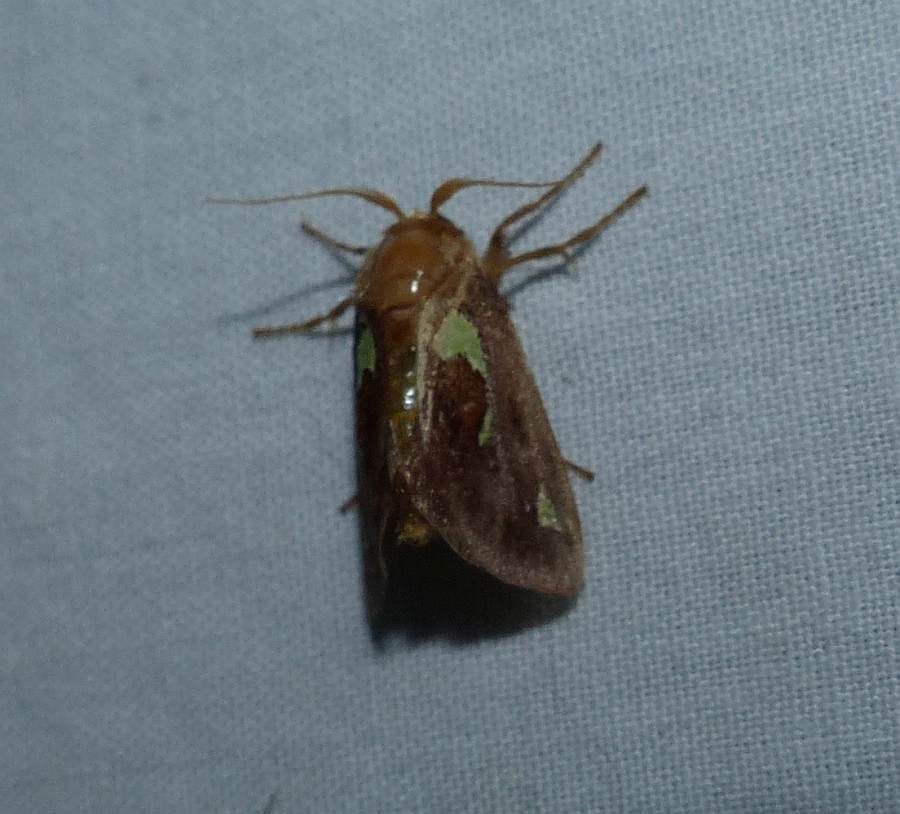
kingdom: Animalia
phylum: Arthropoda
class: Insecta
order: Lepidoptera
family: Limacodidae
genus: Euclea
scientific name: Euclea delphinii
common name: Spiny oak-slug moth
